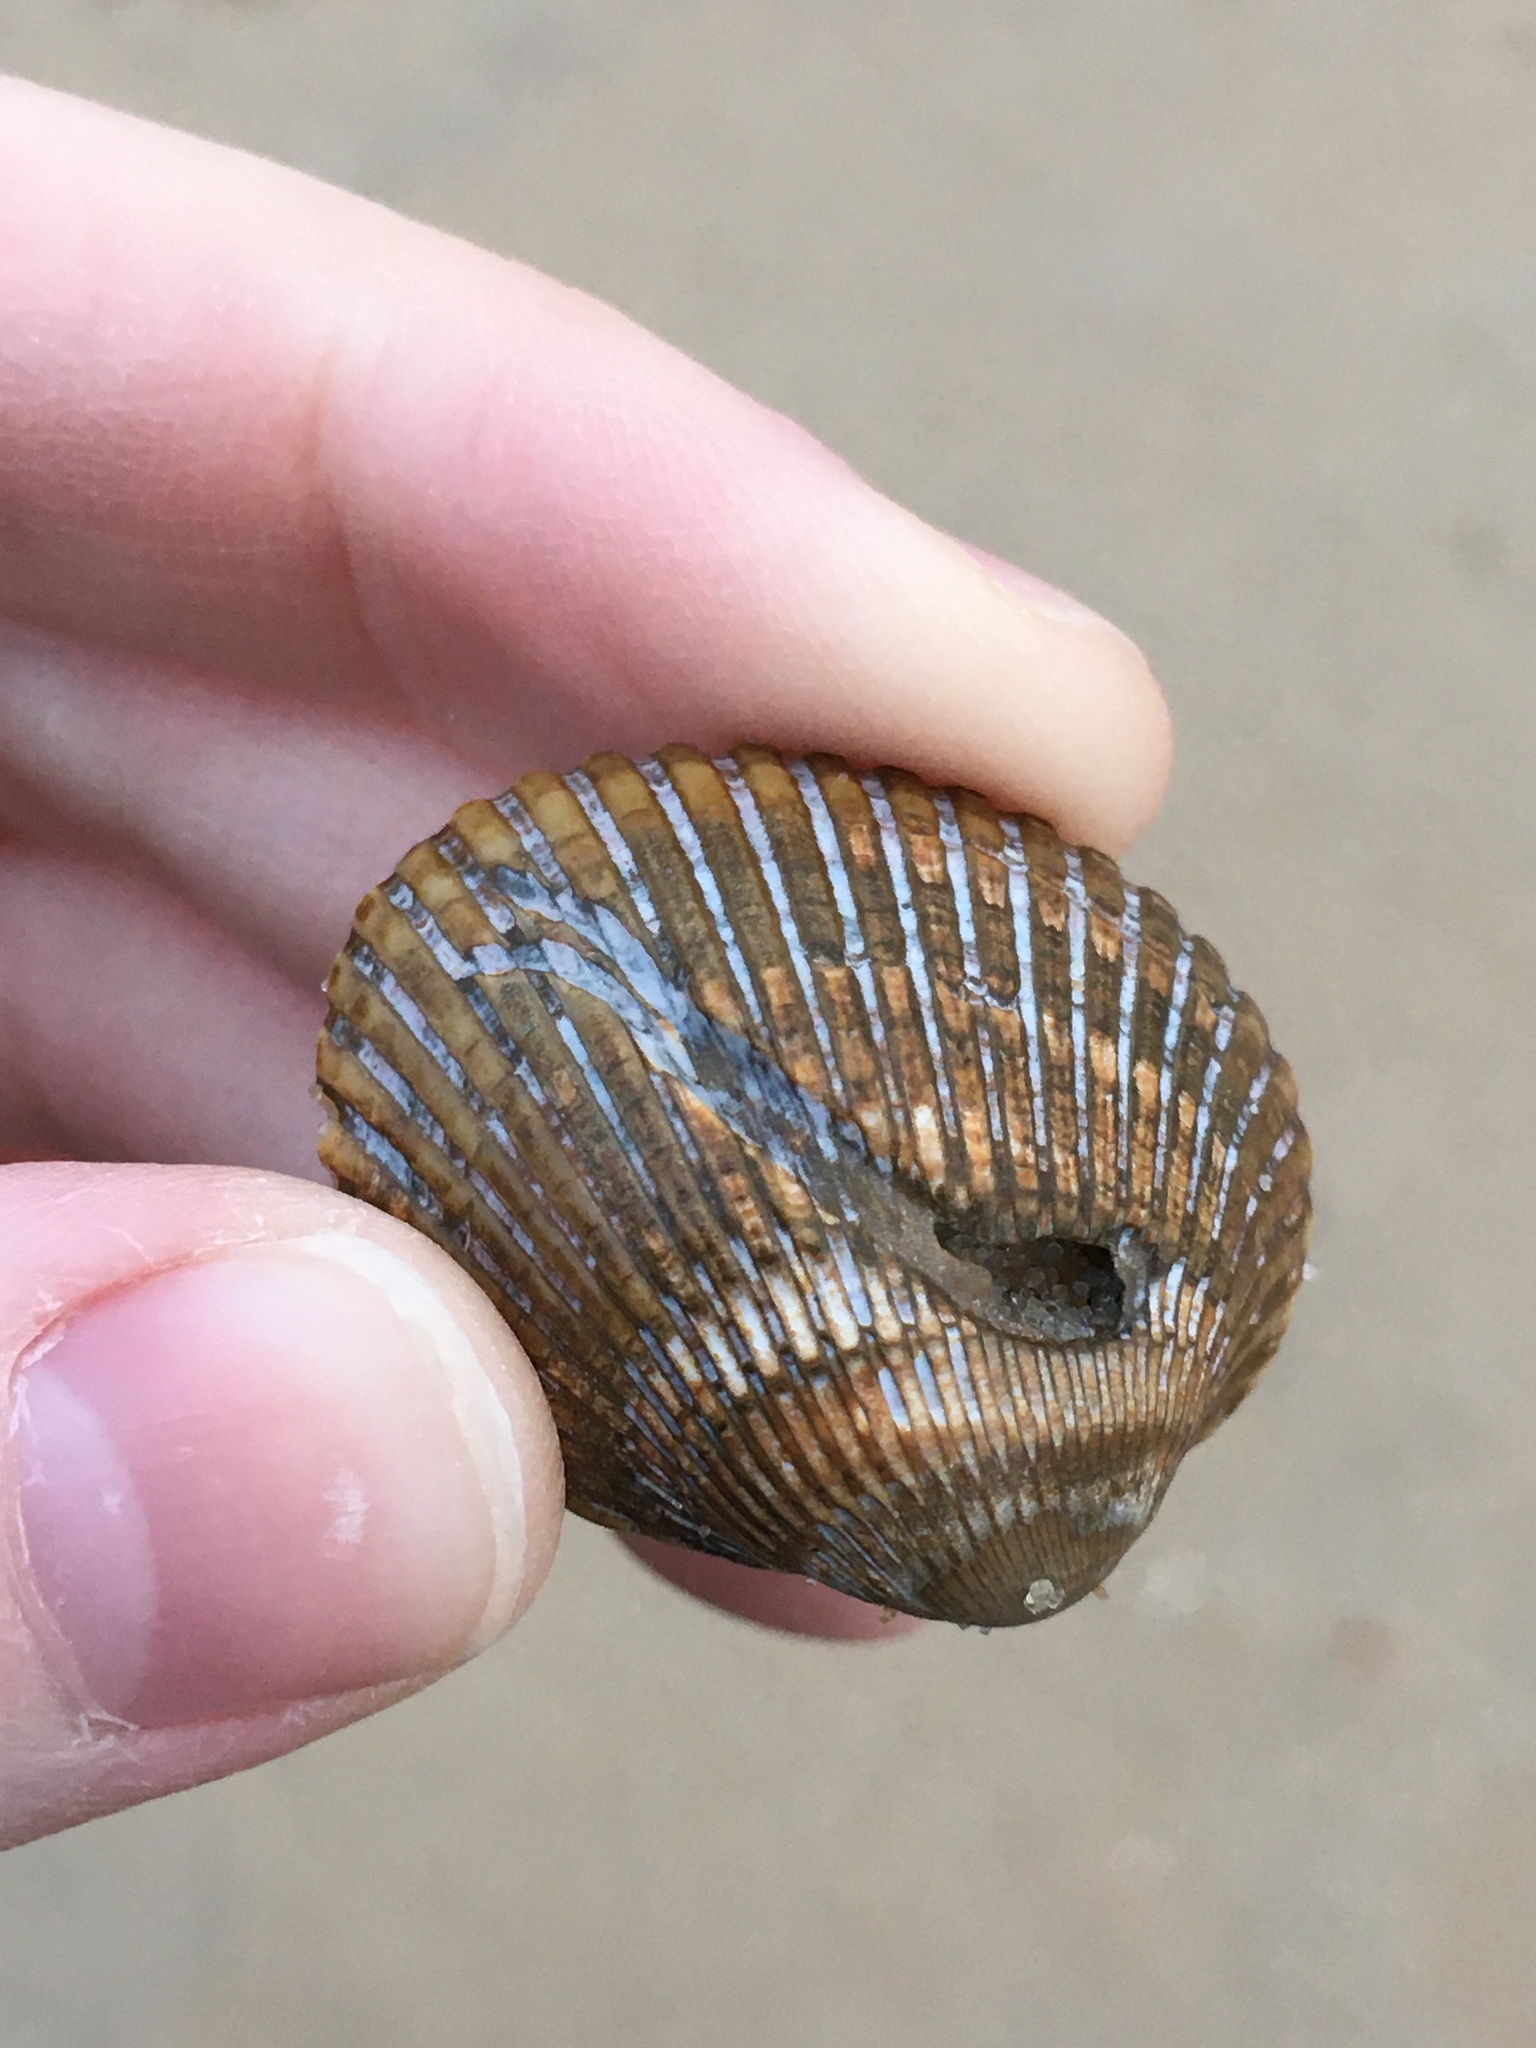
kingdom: Animalia
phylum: Mollusca
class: Bivalvia
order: Arcida
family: Arcidae
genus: Lunarca
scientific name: Lunarca ovalis
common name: Blood ark
